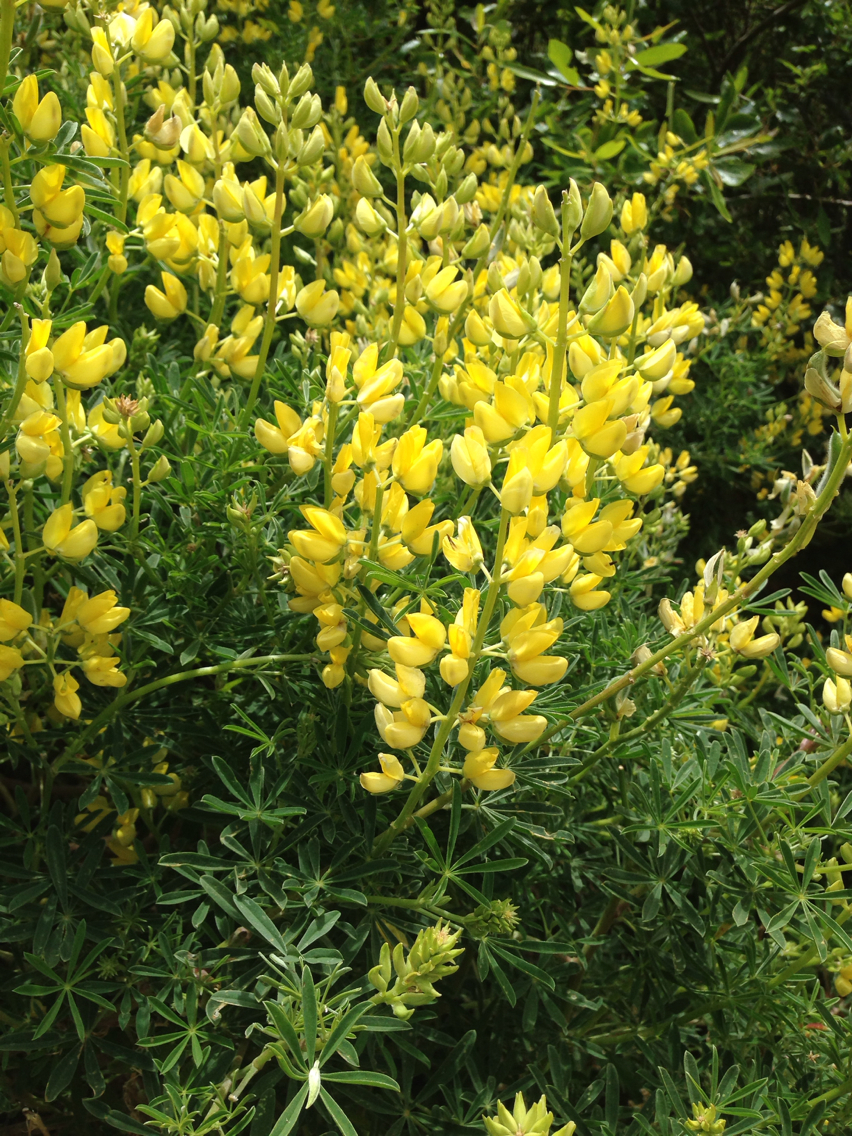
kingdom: Plantae
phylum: Tracheophyta
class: Magnoliopsida
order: Fabales
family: Fabaceae
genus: Lupinus
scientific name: Lupinus arboreus
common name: Yellow bush lupine
